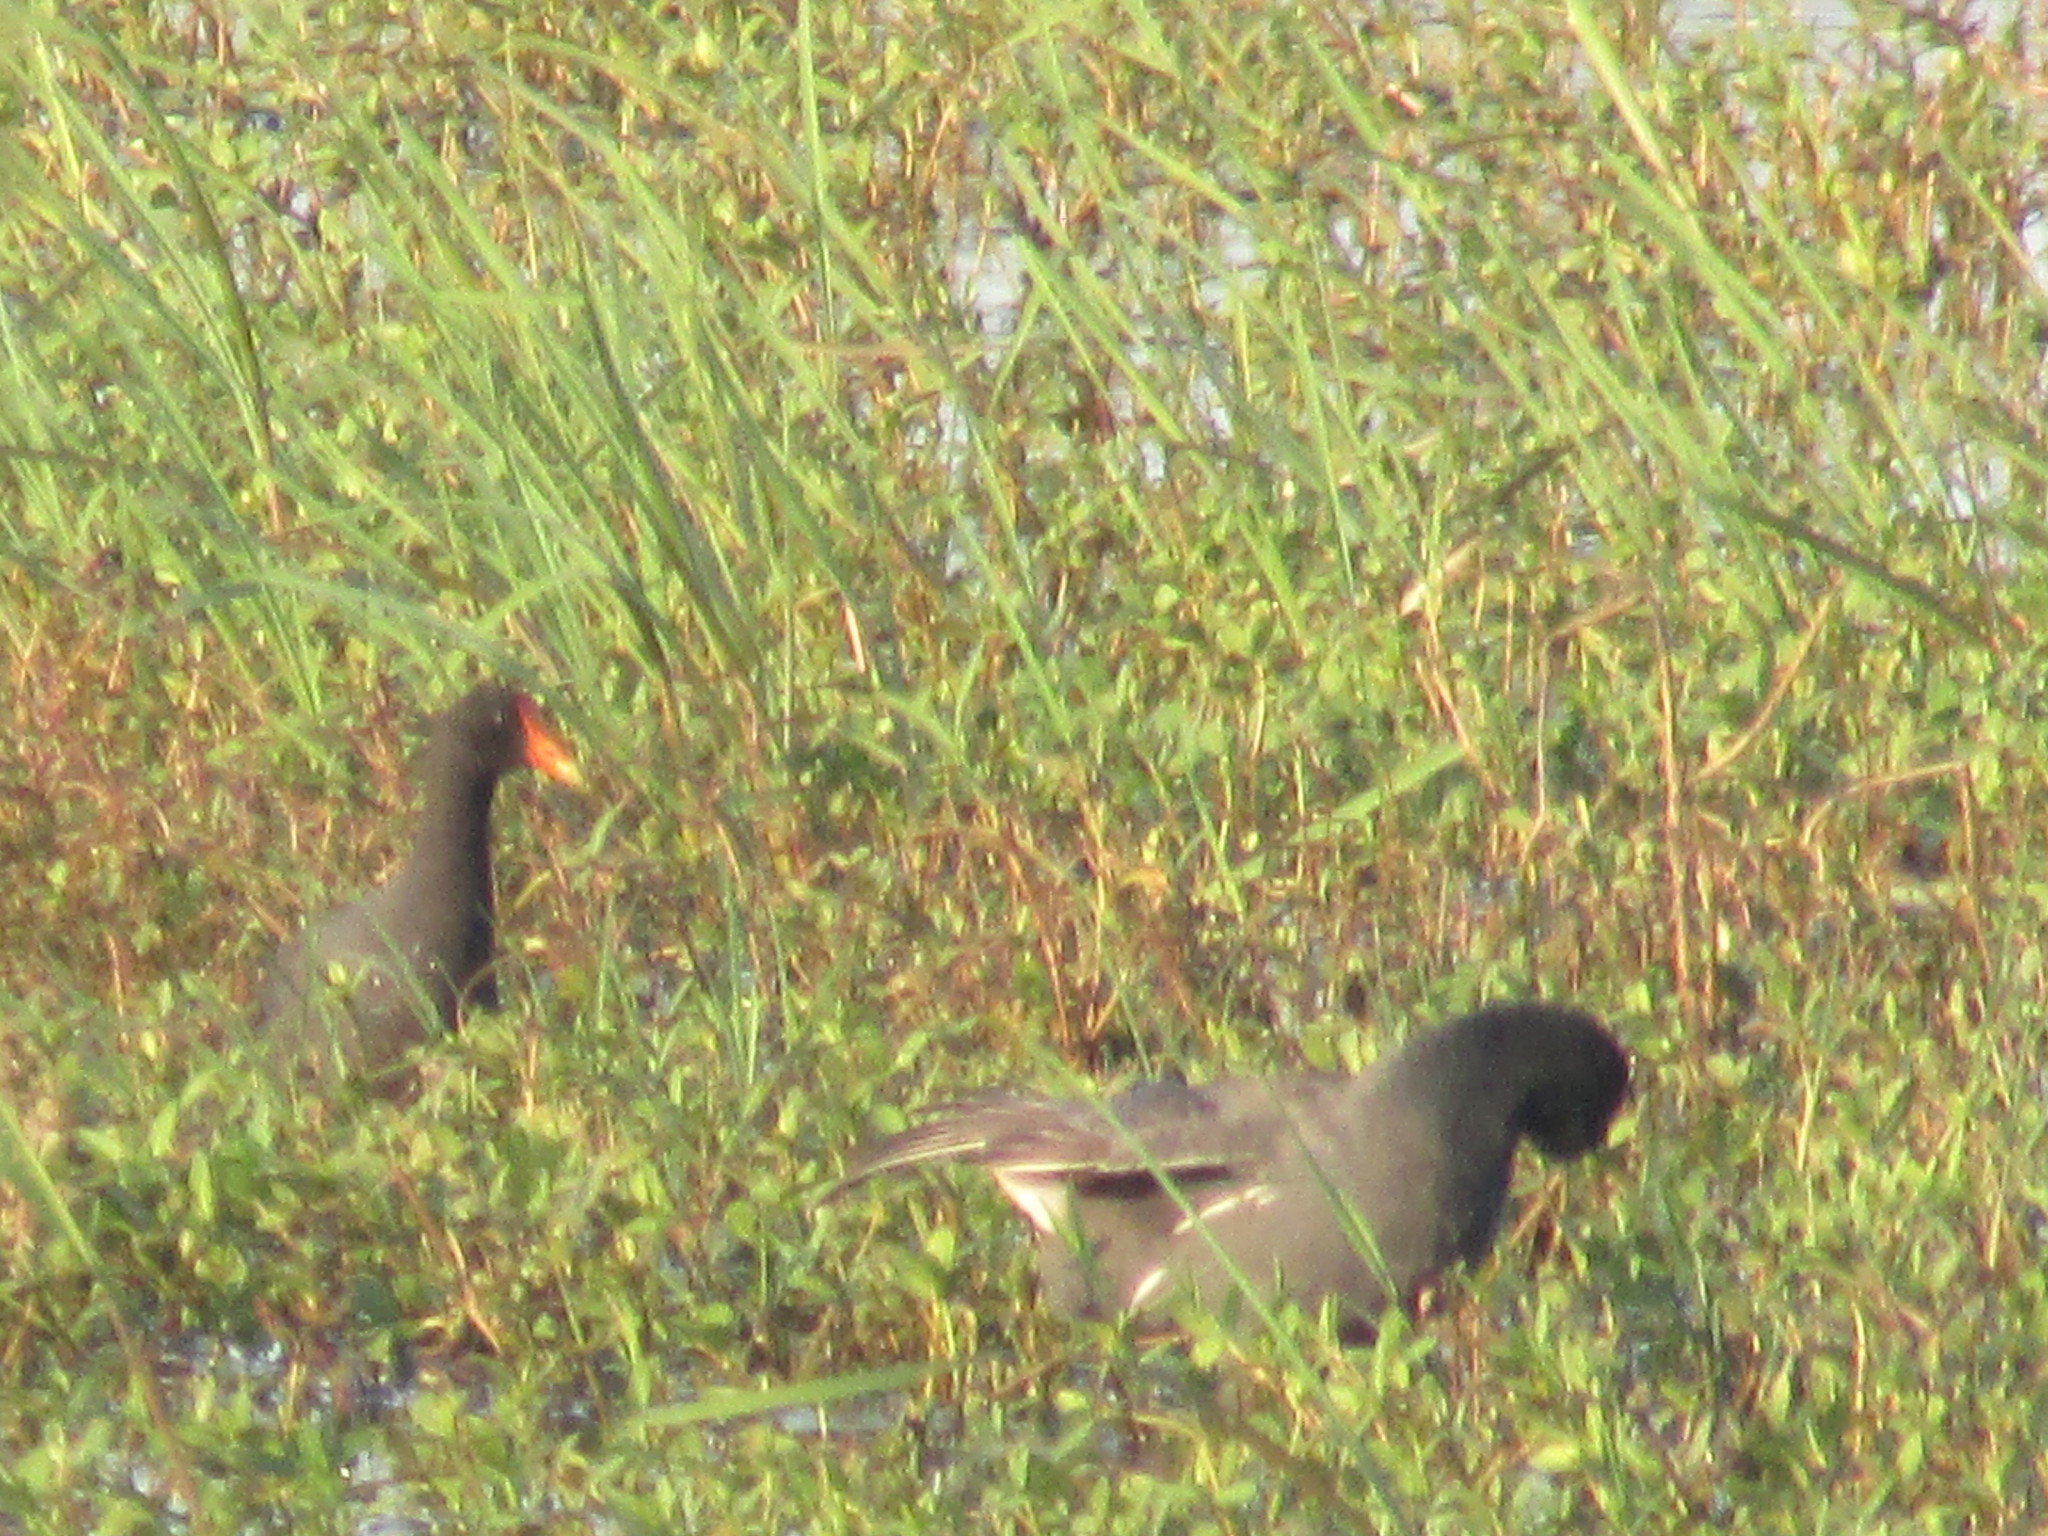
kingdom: Animalia
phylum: Chordata
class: Aves
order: Gruiformes
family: Rallidae
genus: Gallinula
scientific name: Gallinula chloropus
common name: Common moorhen
